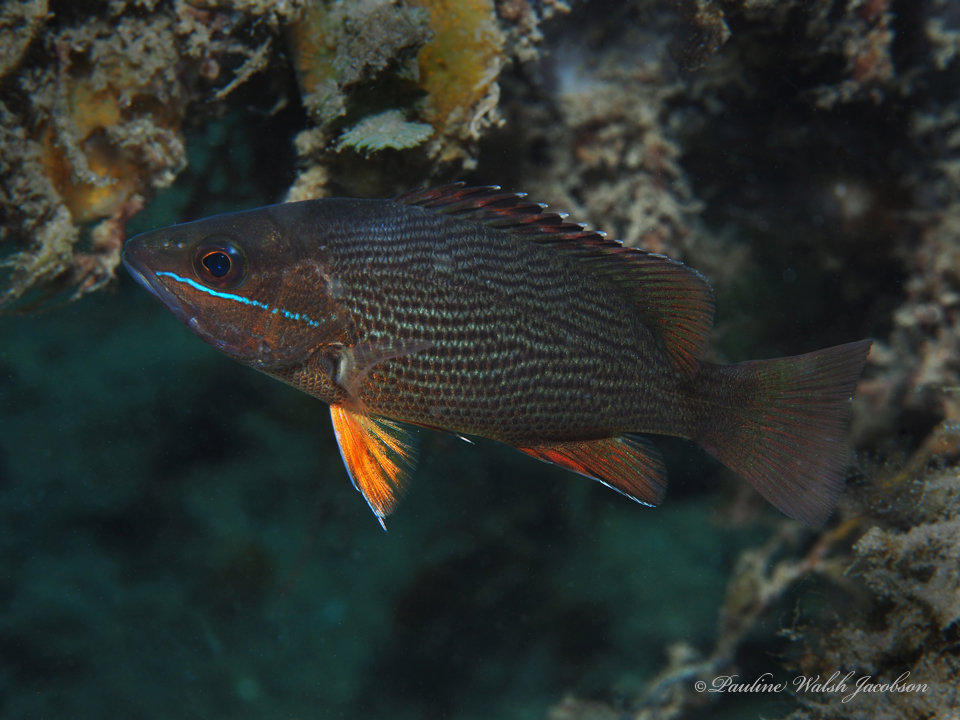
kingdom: Animalia
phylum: Chordata
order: Perciformes
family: Lutjanidae
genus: Lutjanus
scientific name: Lutjanus griseus
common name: Gray snapper
